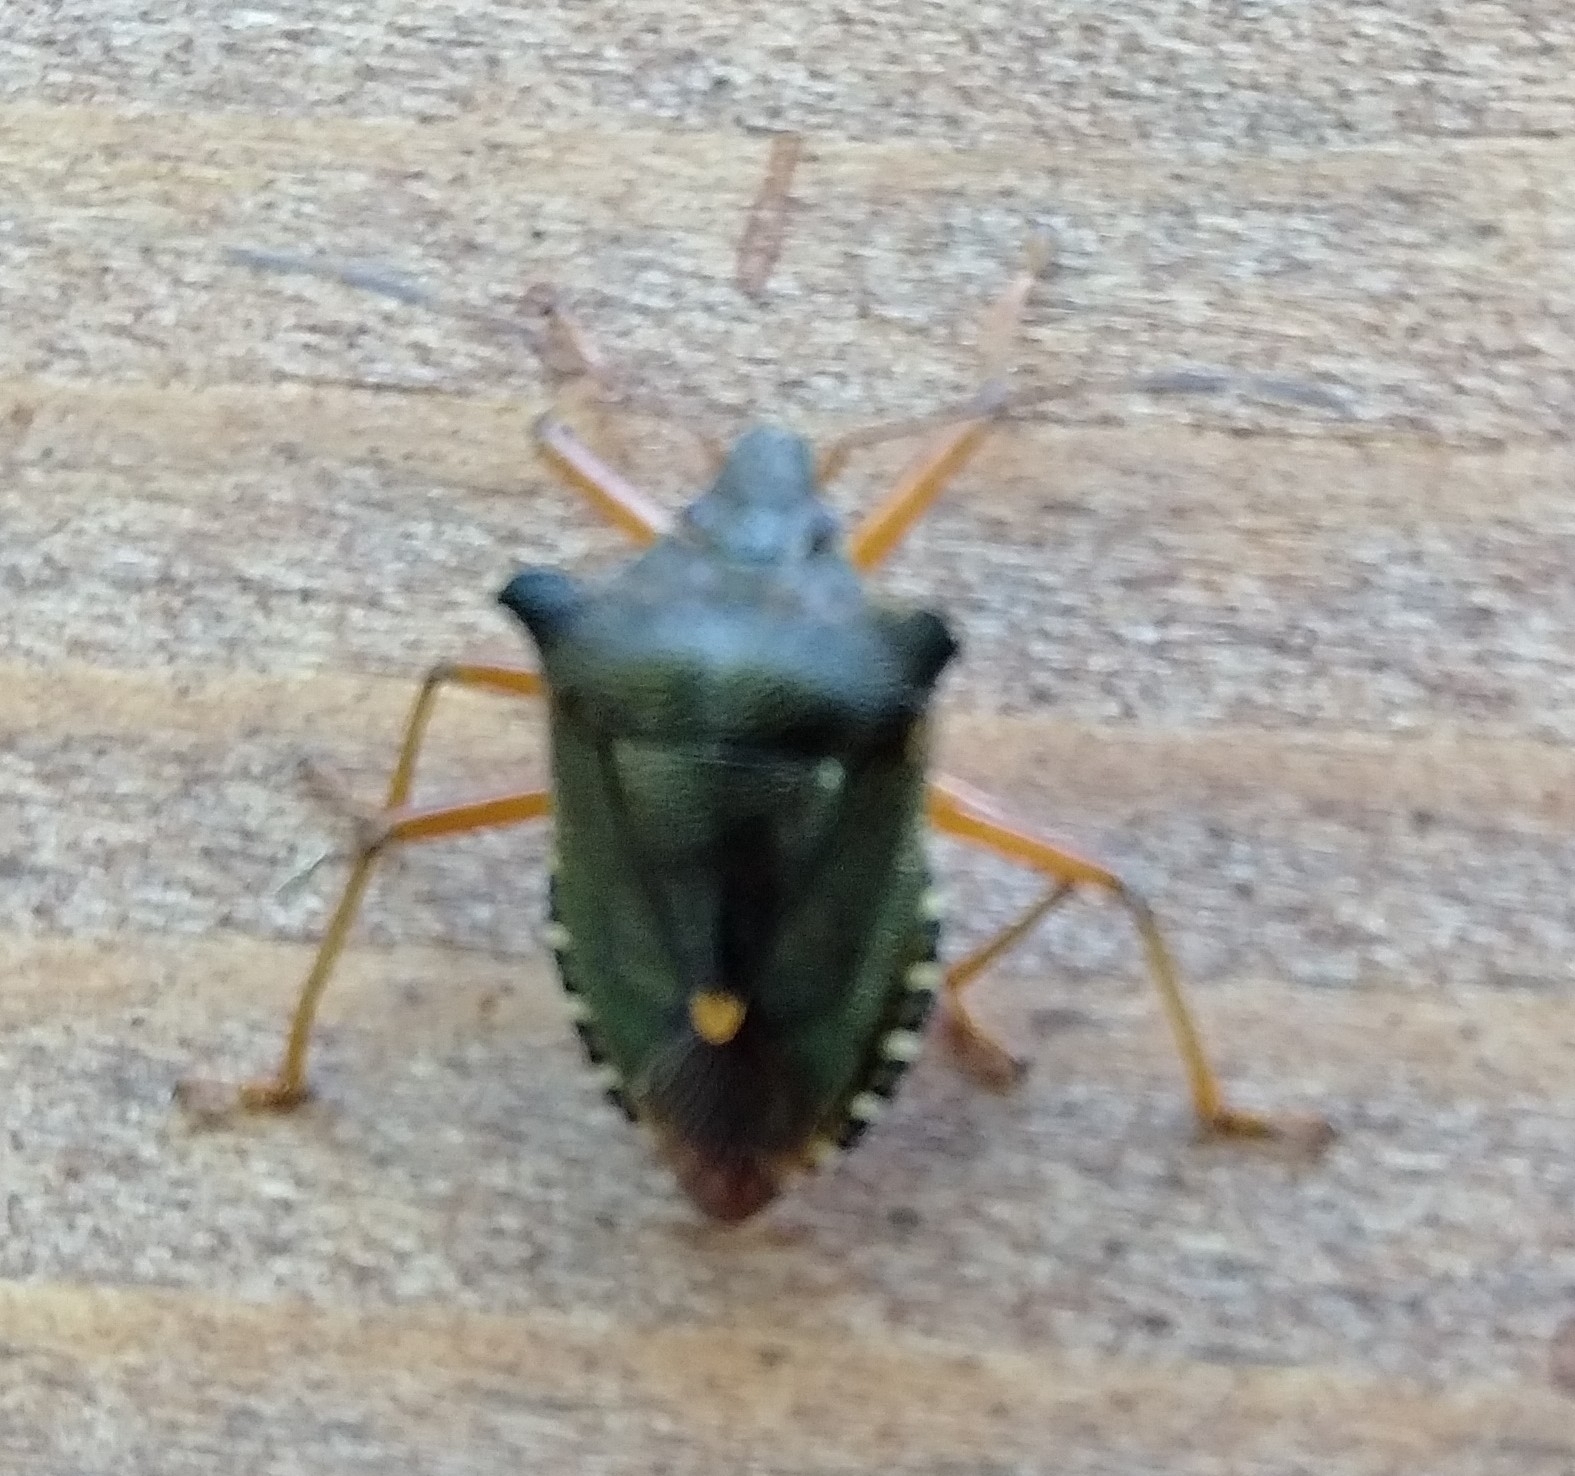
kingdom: Animalia
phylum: Arthropoda
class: Insecta
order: Hemiptera
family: Pentatomidae
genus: Pentatoma
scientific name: Pentatoma rufipes
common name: Forest bug
